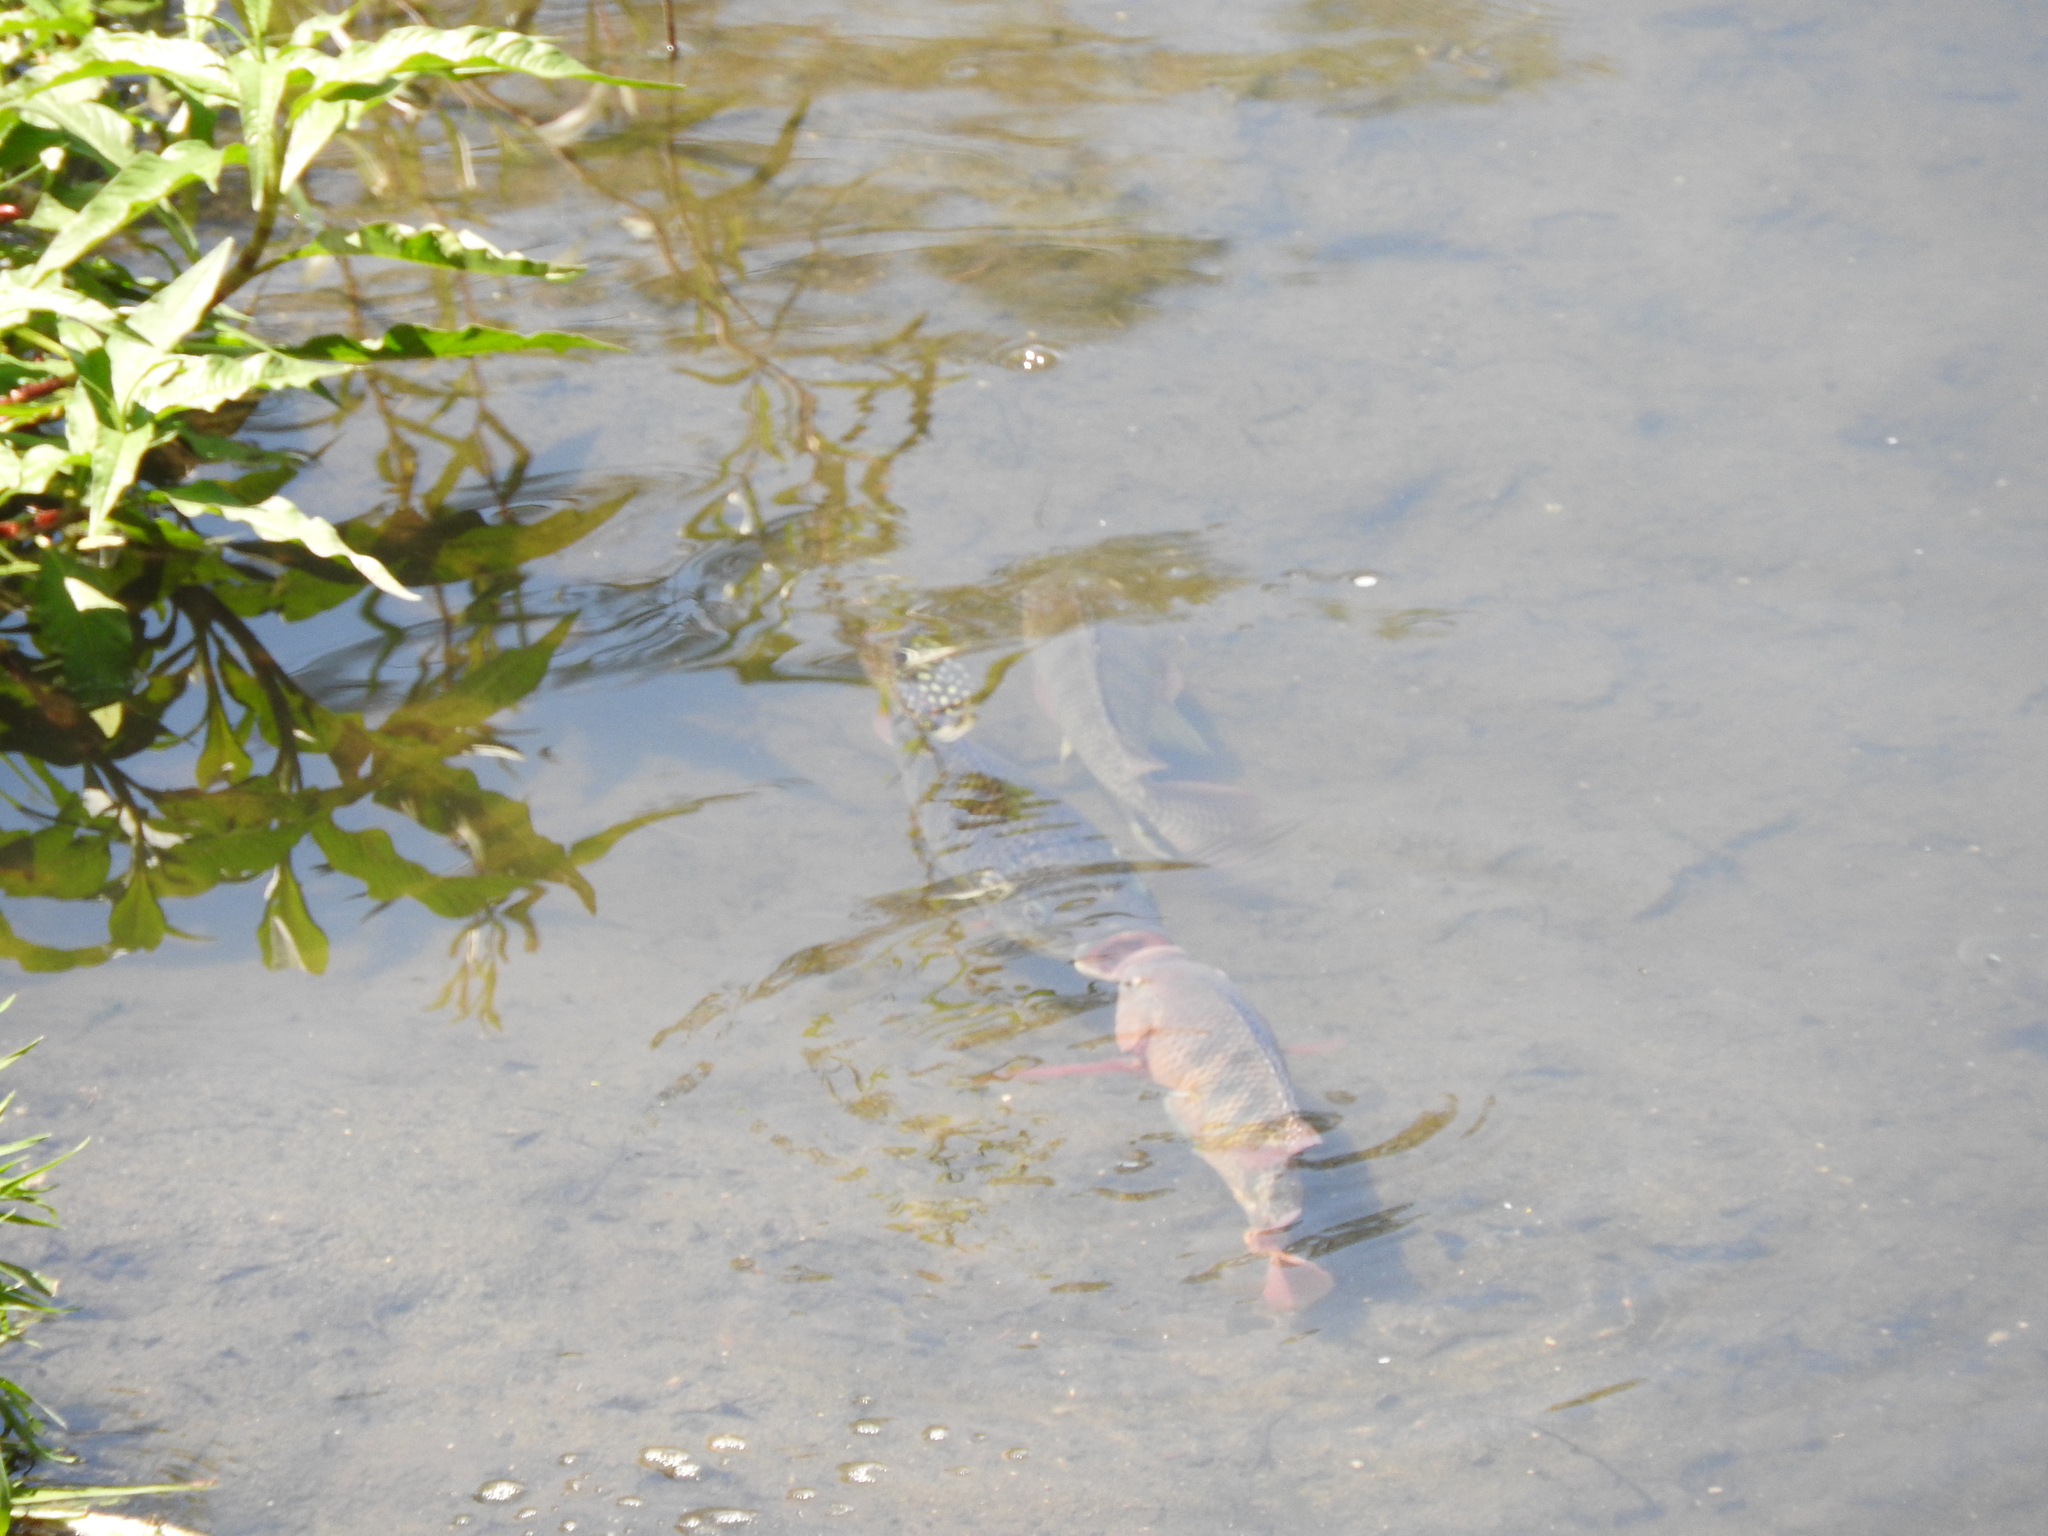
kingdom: Animalia
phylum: Chordata
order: Perciformes
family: Cichlidae
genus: Oreochromis
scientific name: Oreochromis niloticus
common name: Nile tilapia
